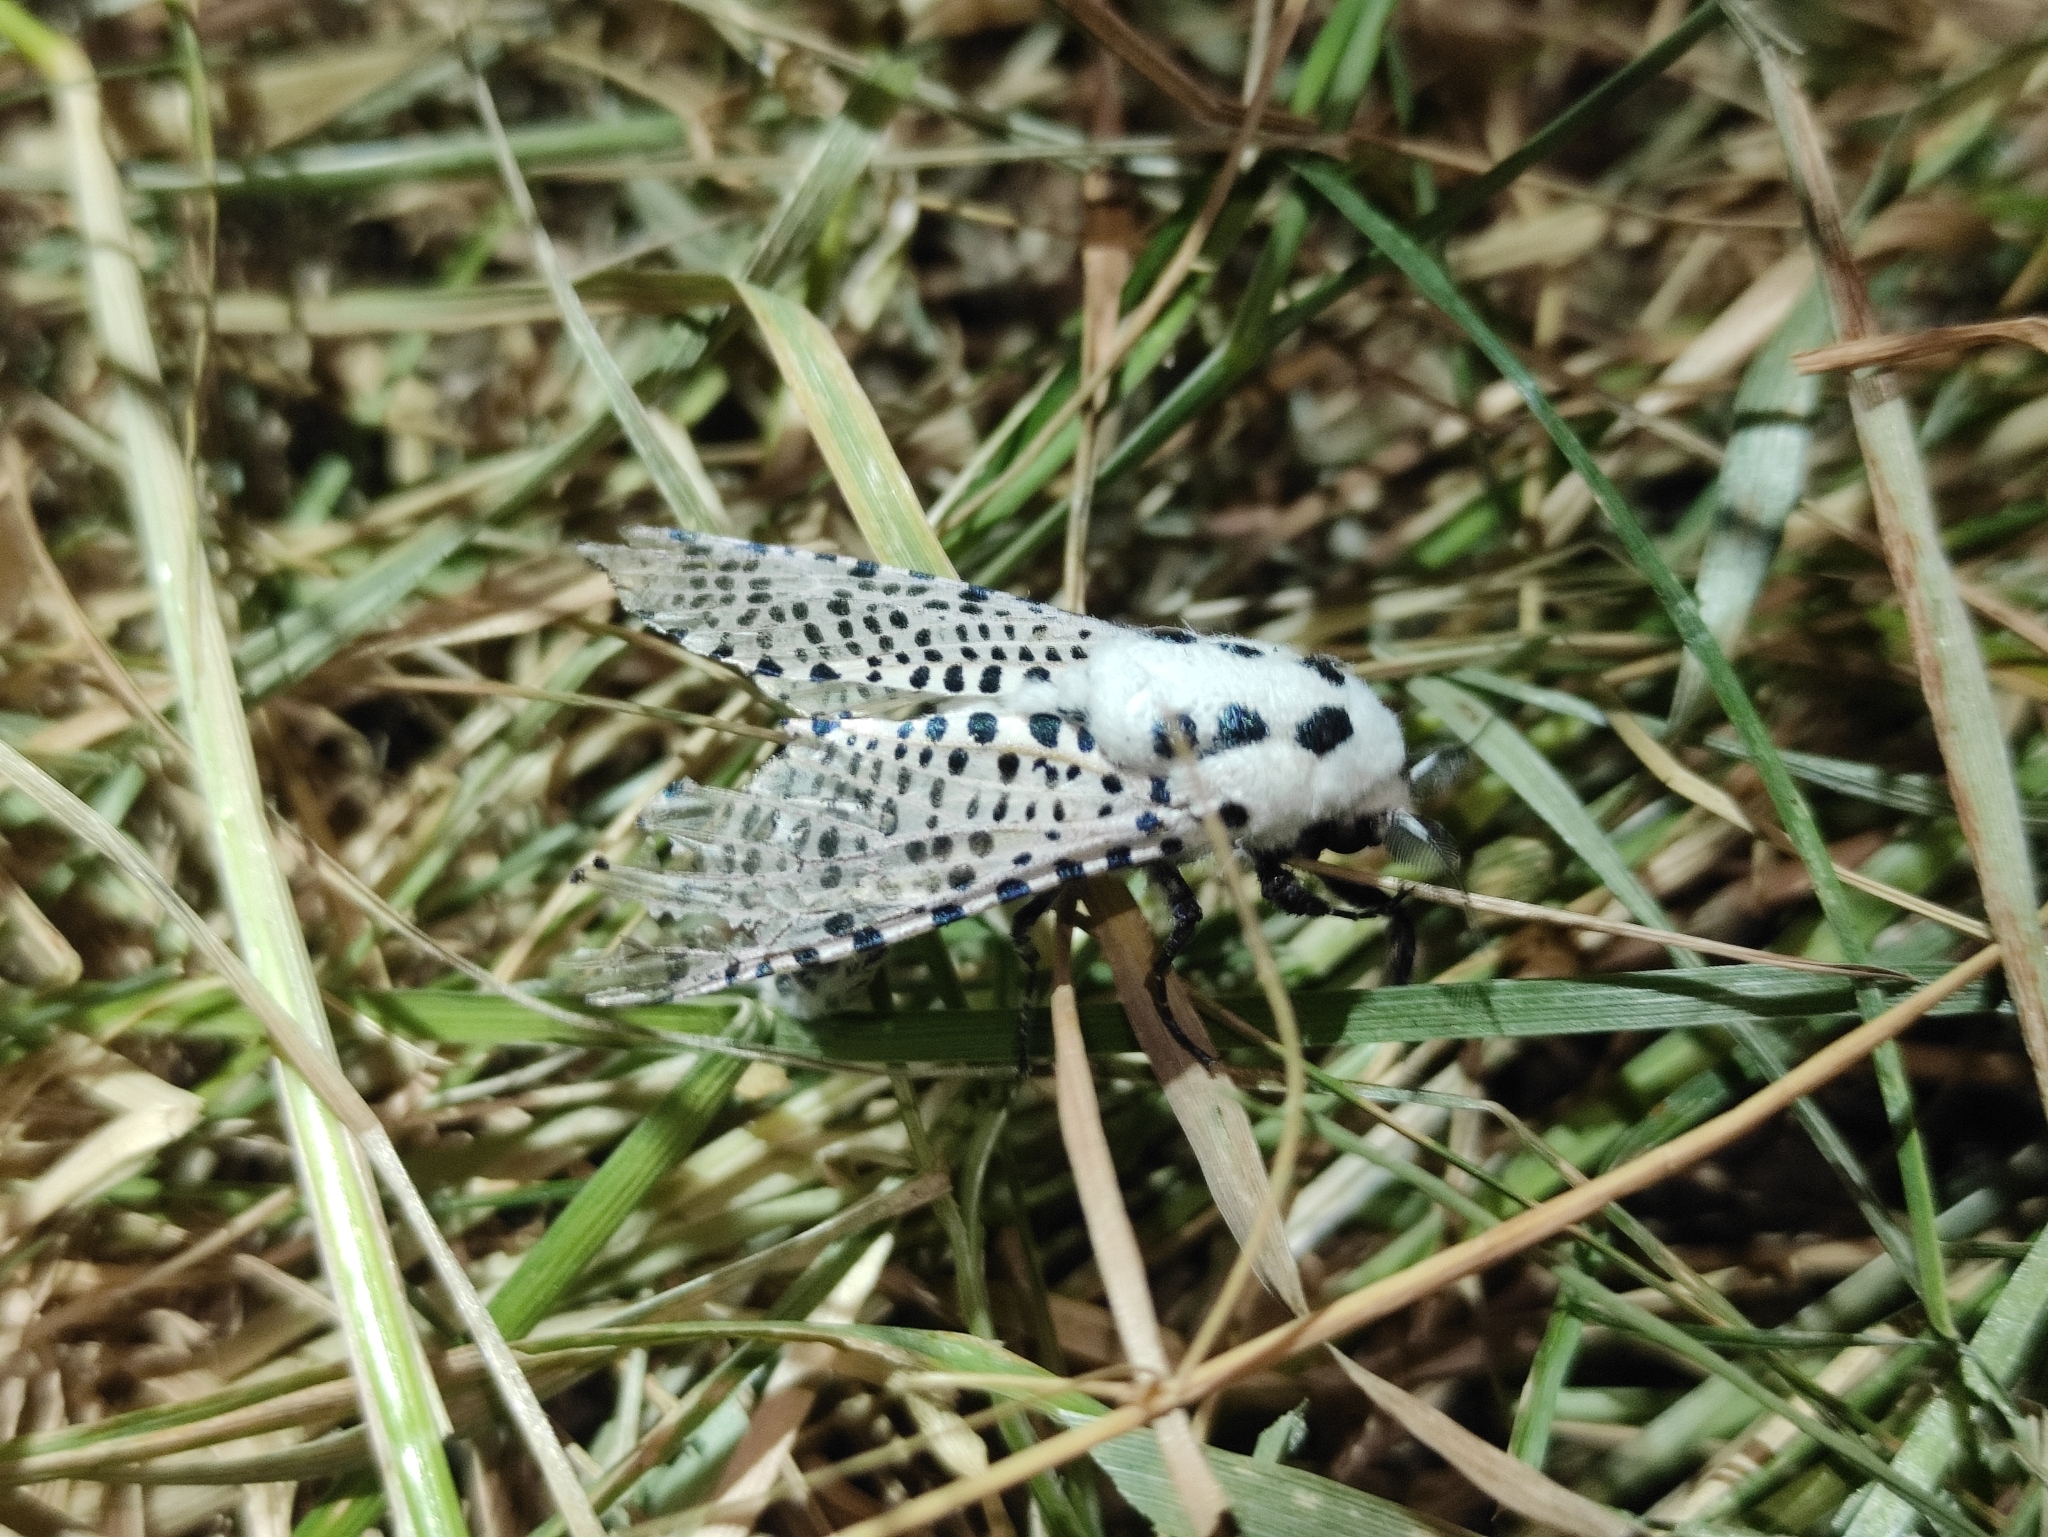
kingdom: Animalia
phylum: Arthropoda
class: Insecta
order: Lepidoptera
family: Cossidae
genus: Zeuzera
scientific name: Zeuzera pyrina
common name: Leopard moth
